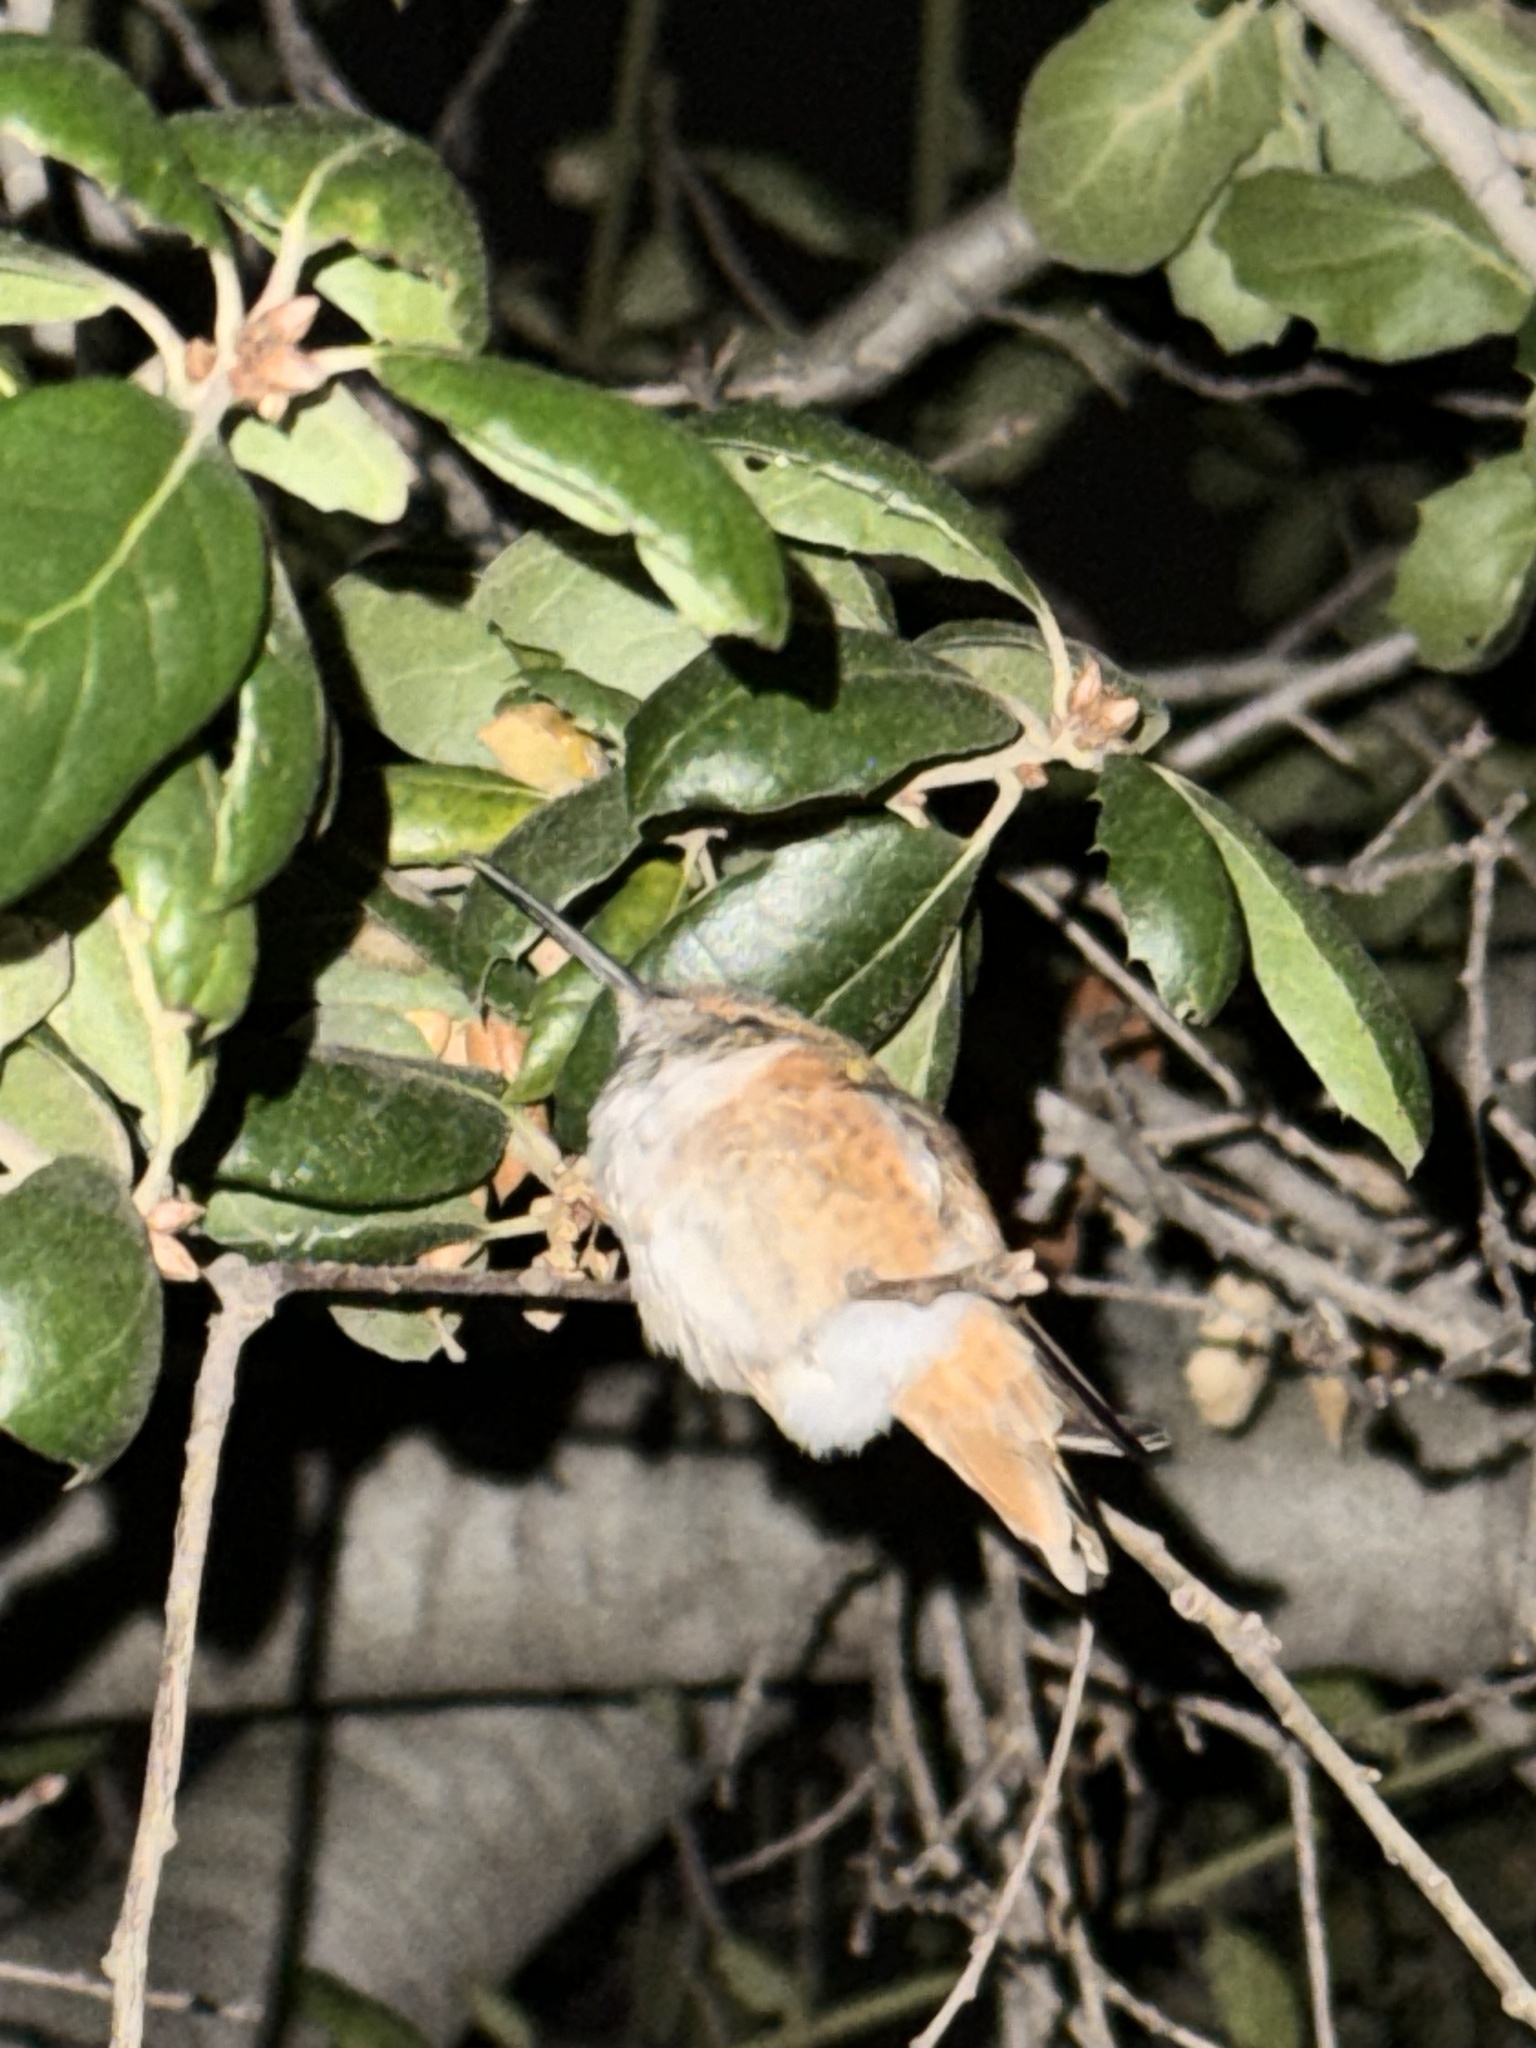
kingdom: Animalia
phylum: Chordata
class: Aves
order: Apodiformes
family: Trochilidae
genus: Selasphorus
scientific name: Selasphorus sasin
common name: Allen's hummingbird
